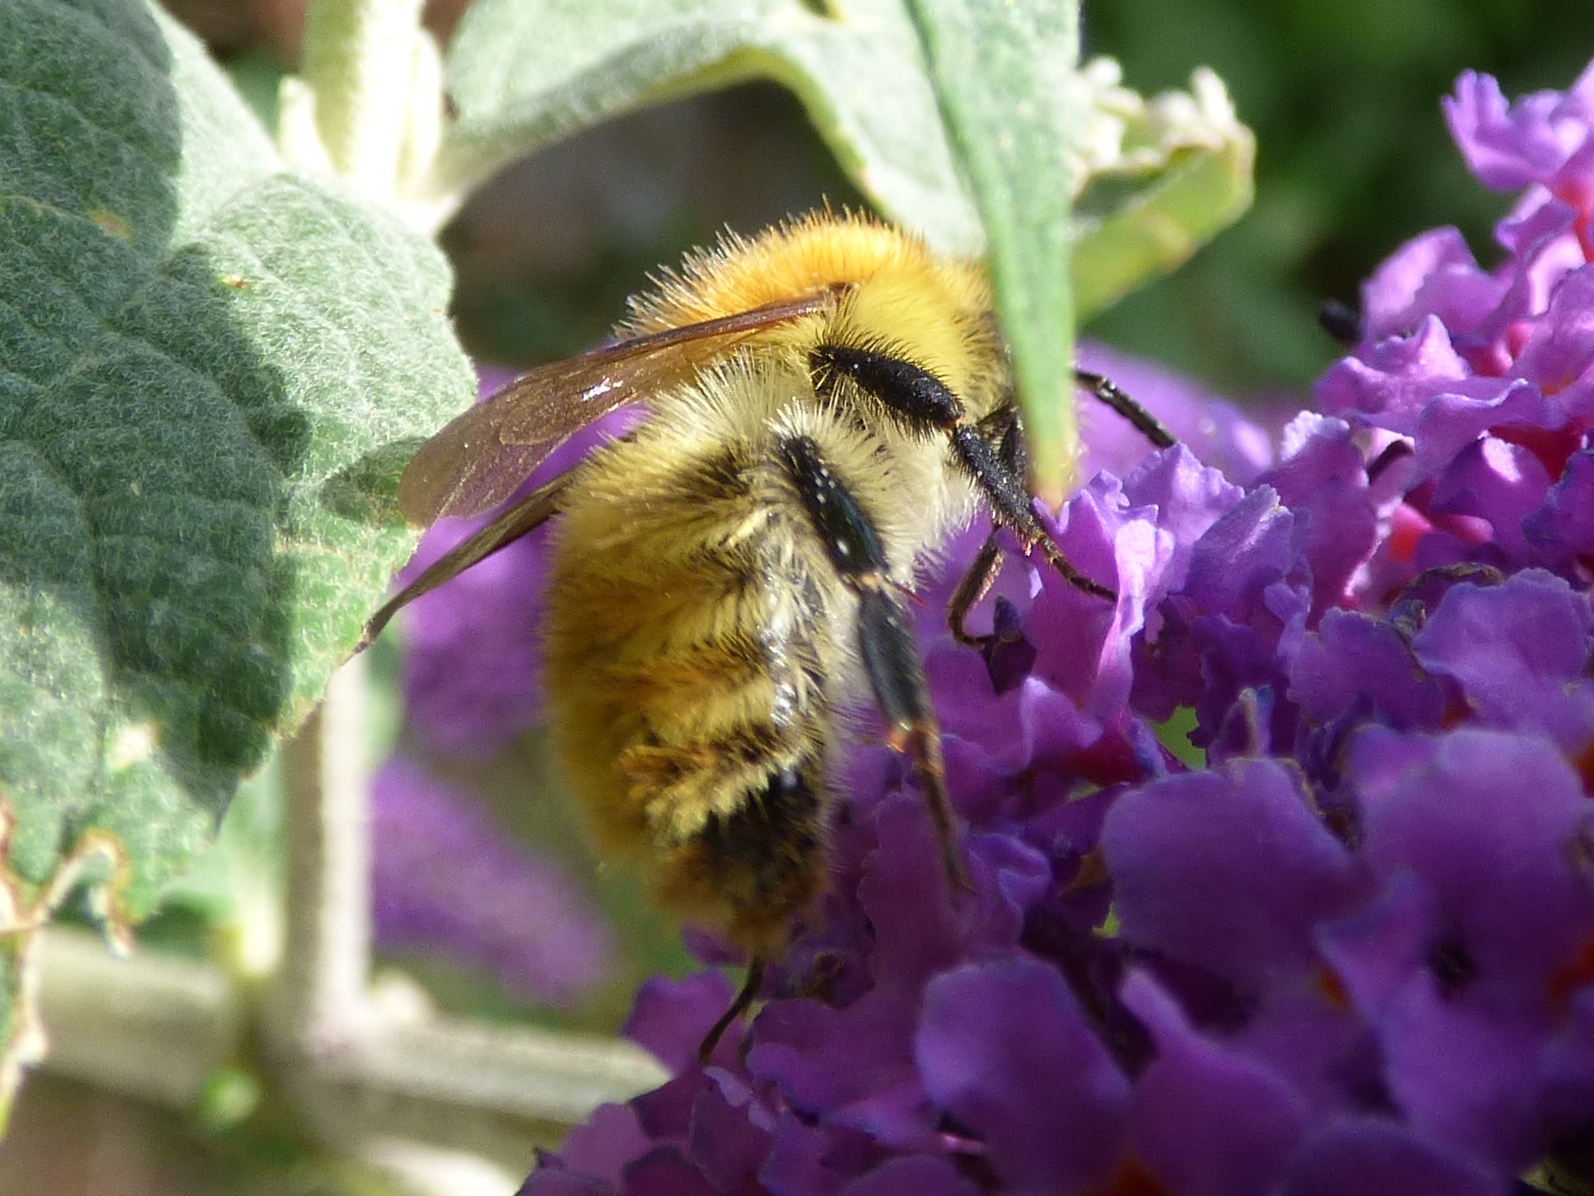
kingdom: Animalia
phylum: Arthropoda
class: Insecta
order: Hymenoptera
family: Apidae
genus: Bombus
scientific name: Bombus pascuorum
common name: Common carder bee
